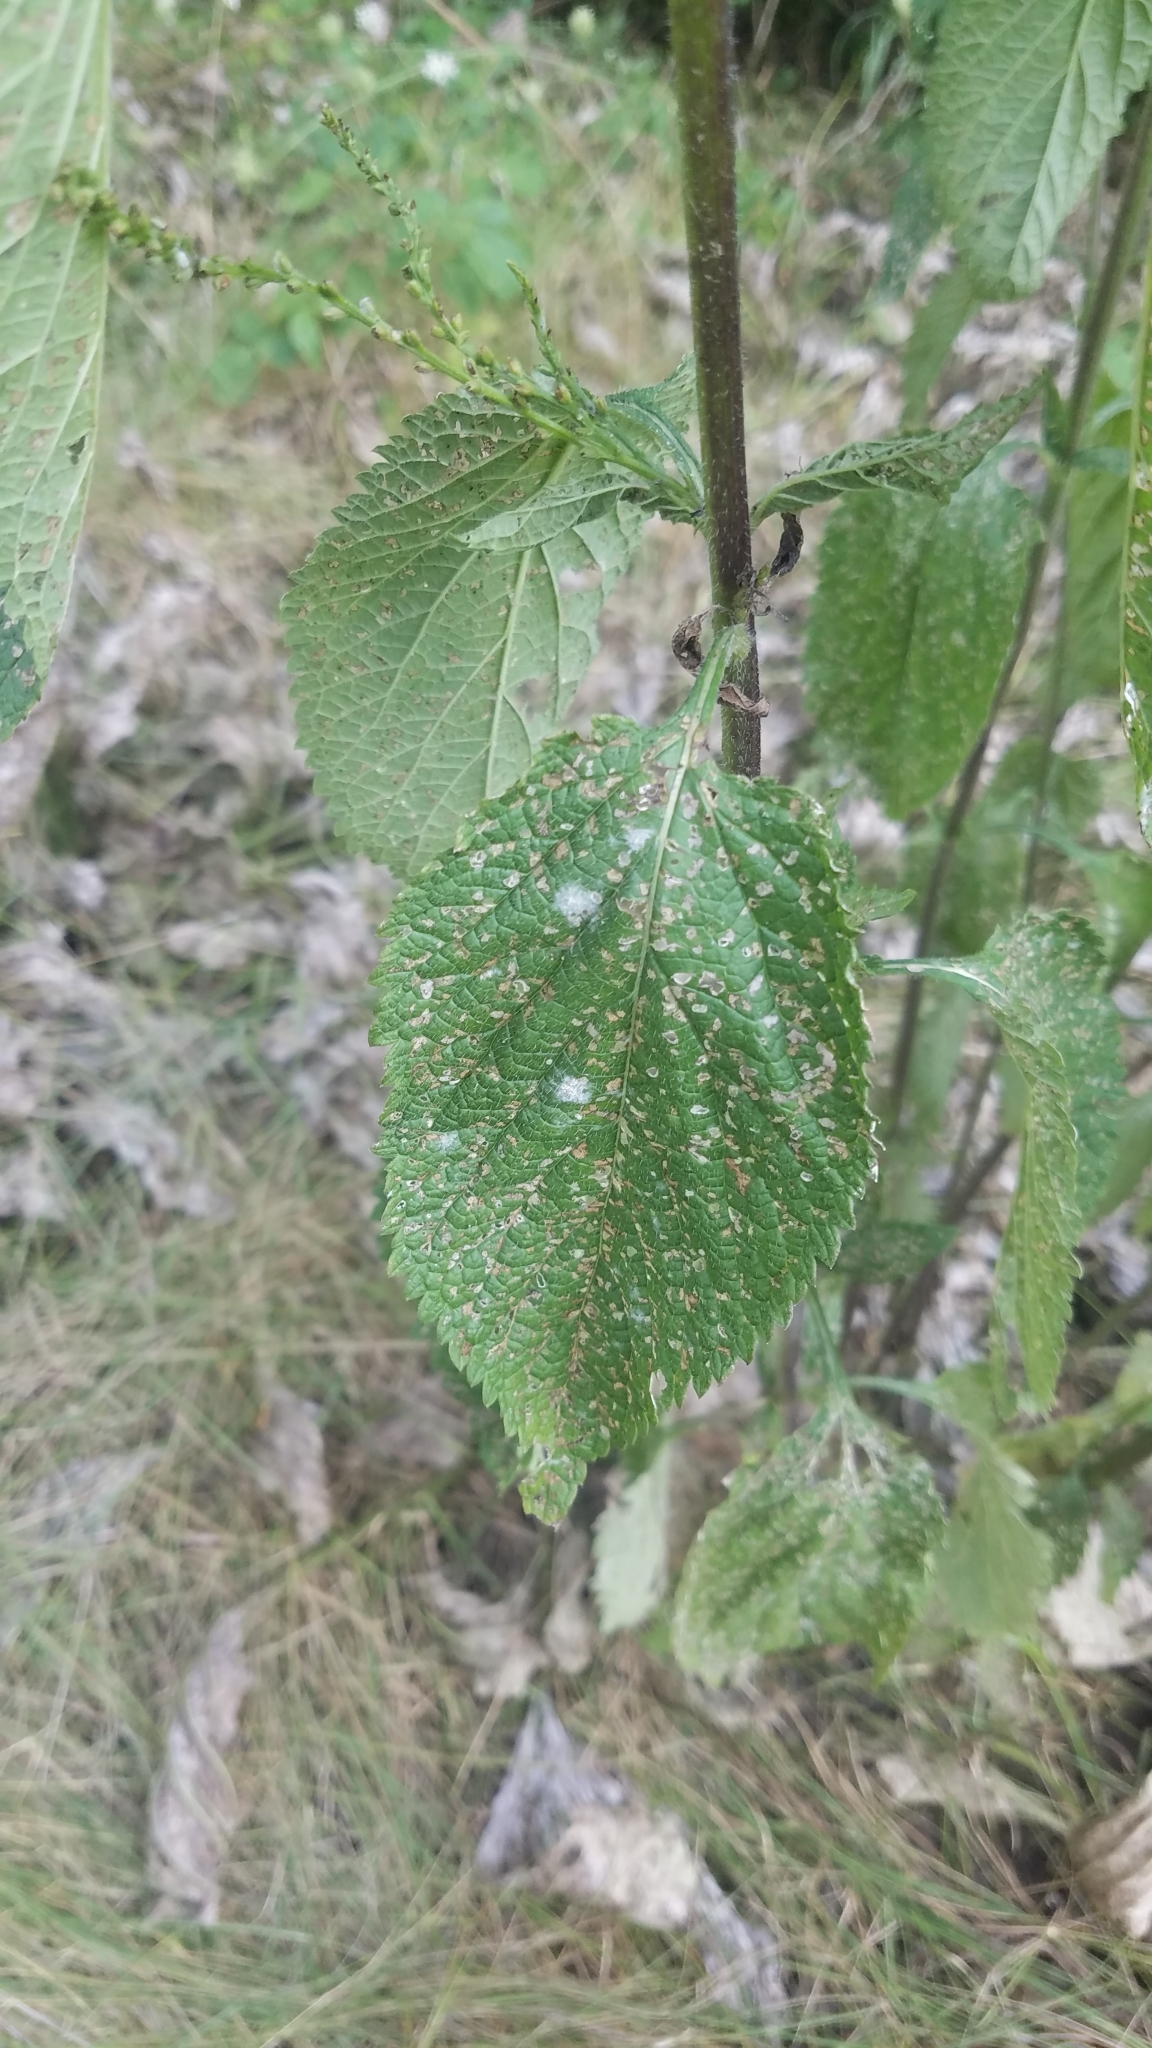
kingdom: Plantae
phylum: Tracheophyta
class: Magnoliopsida
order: Lamiales
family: Verbenaceae
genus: Verbena
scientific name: Verbena urticifolia
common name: Nettle-leaved vervain
